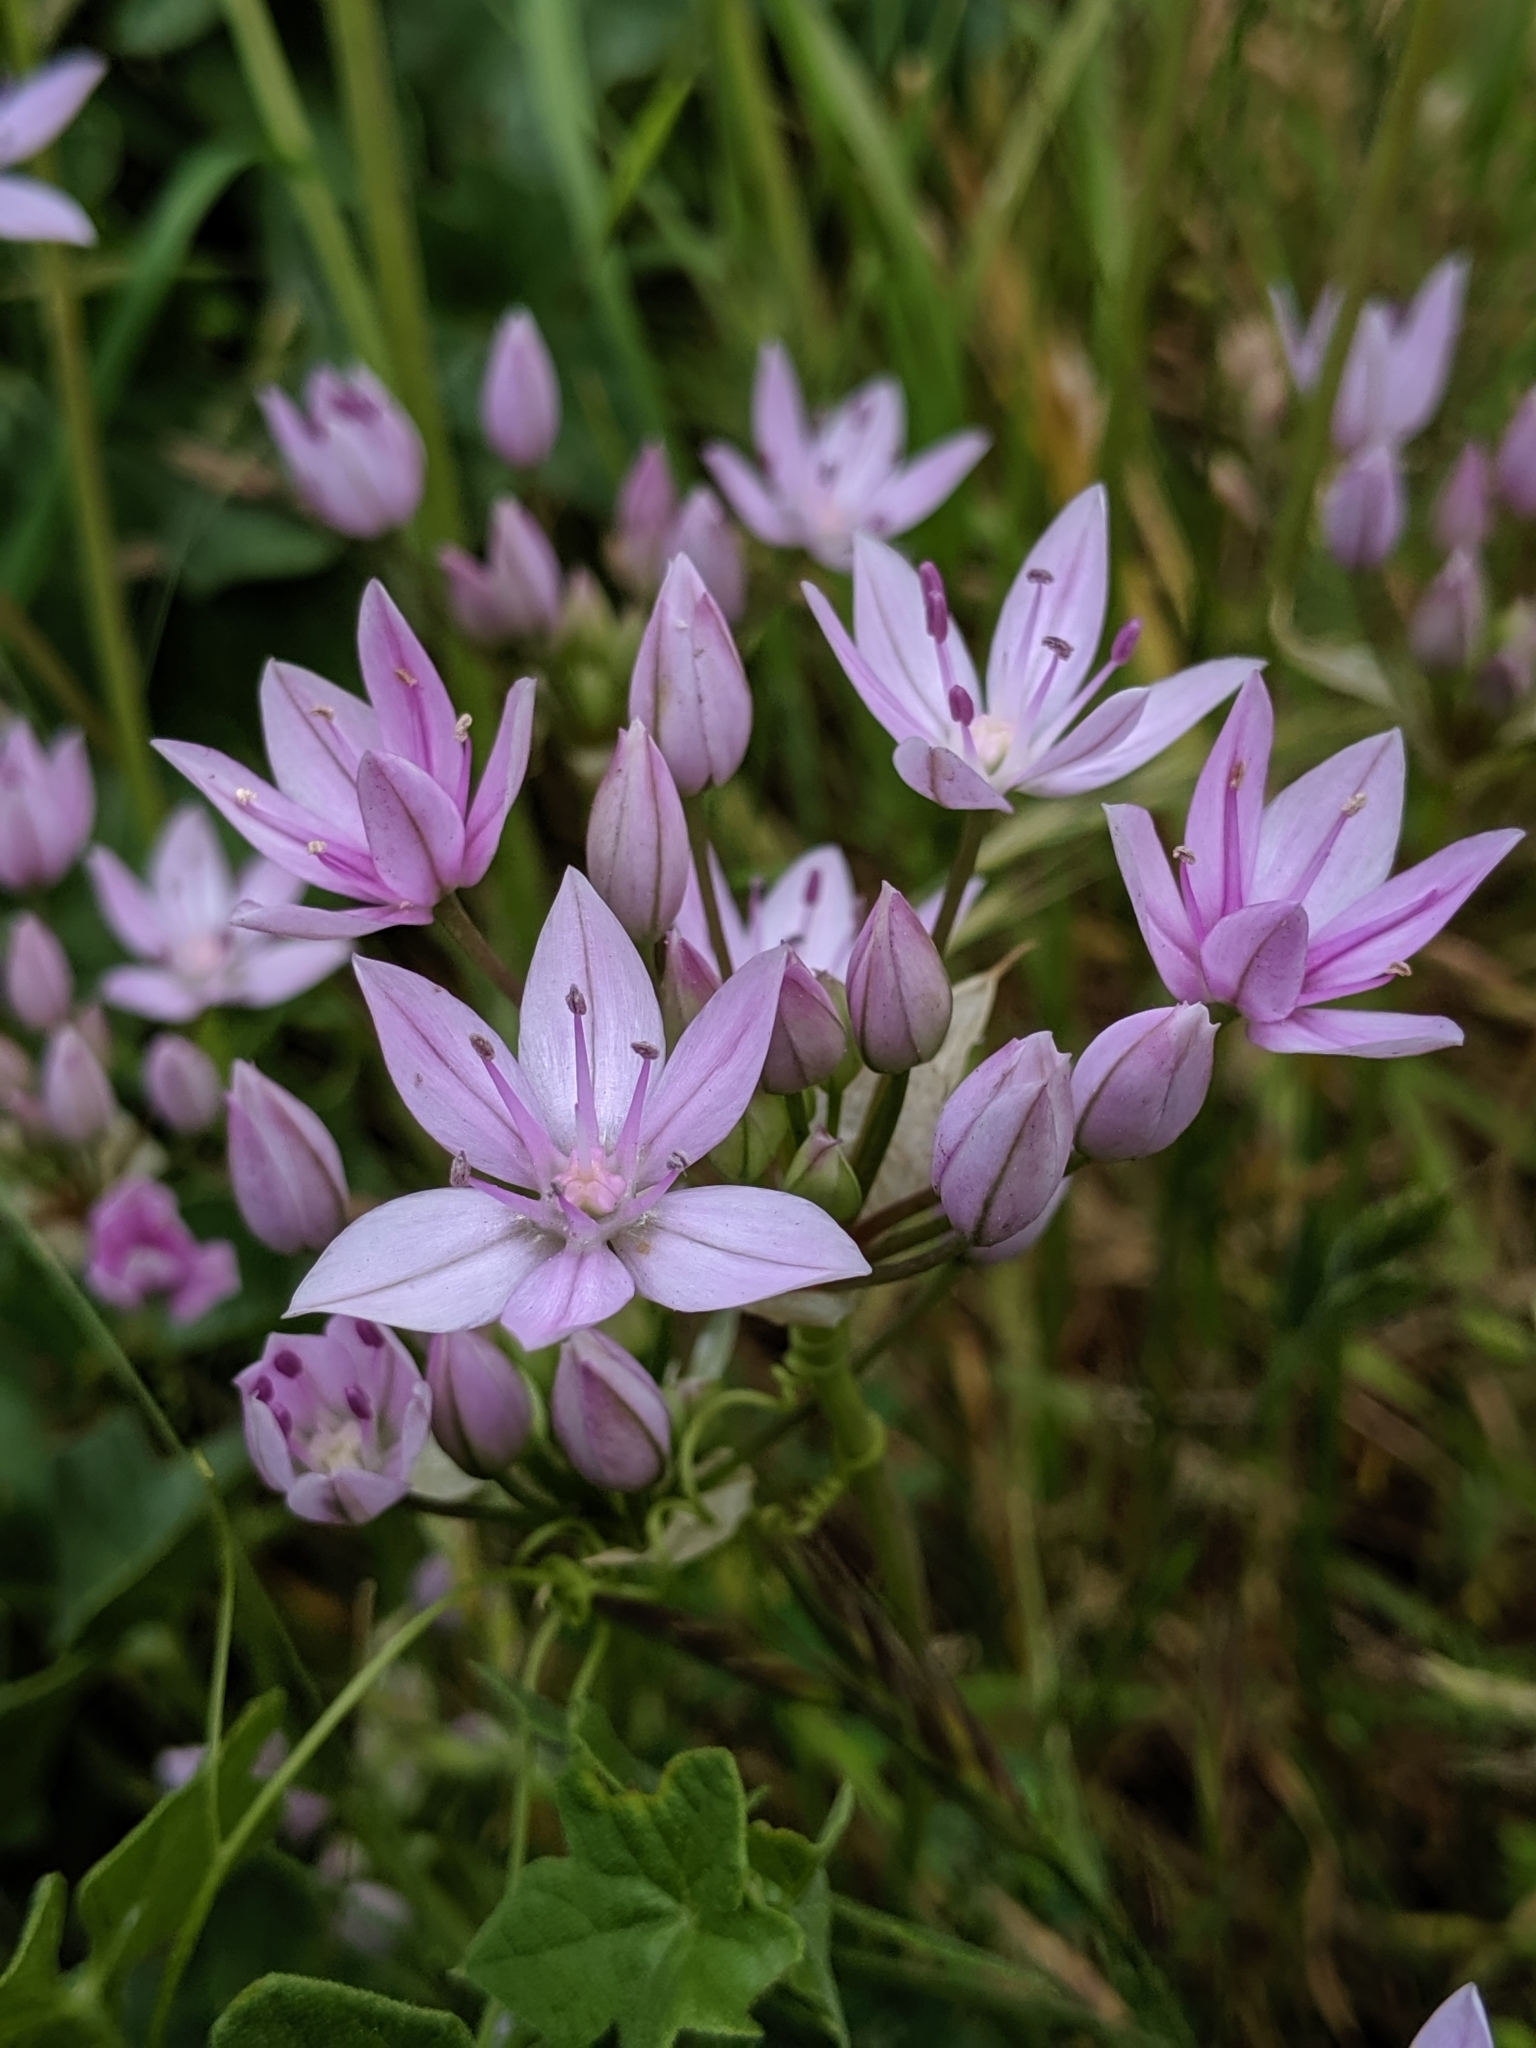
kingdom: Plantae
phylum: Tracheophyta
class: Liliopsida
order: Asparagales
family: Amaryllidaceae
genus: Allium
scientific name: Allium unifolium
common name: American garlic
